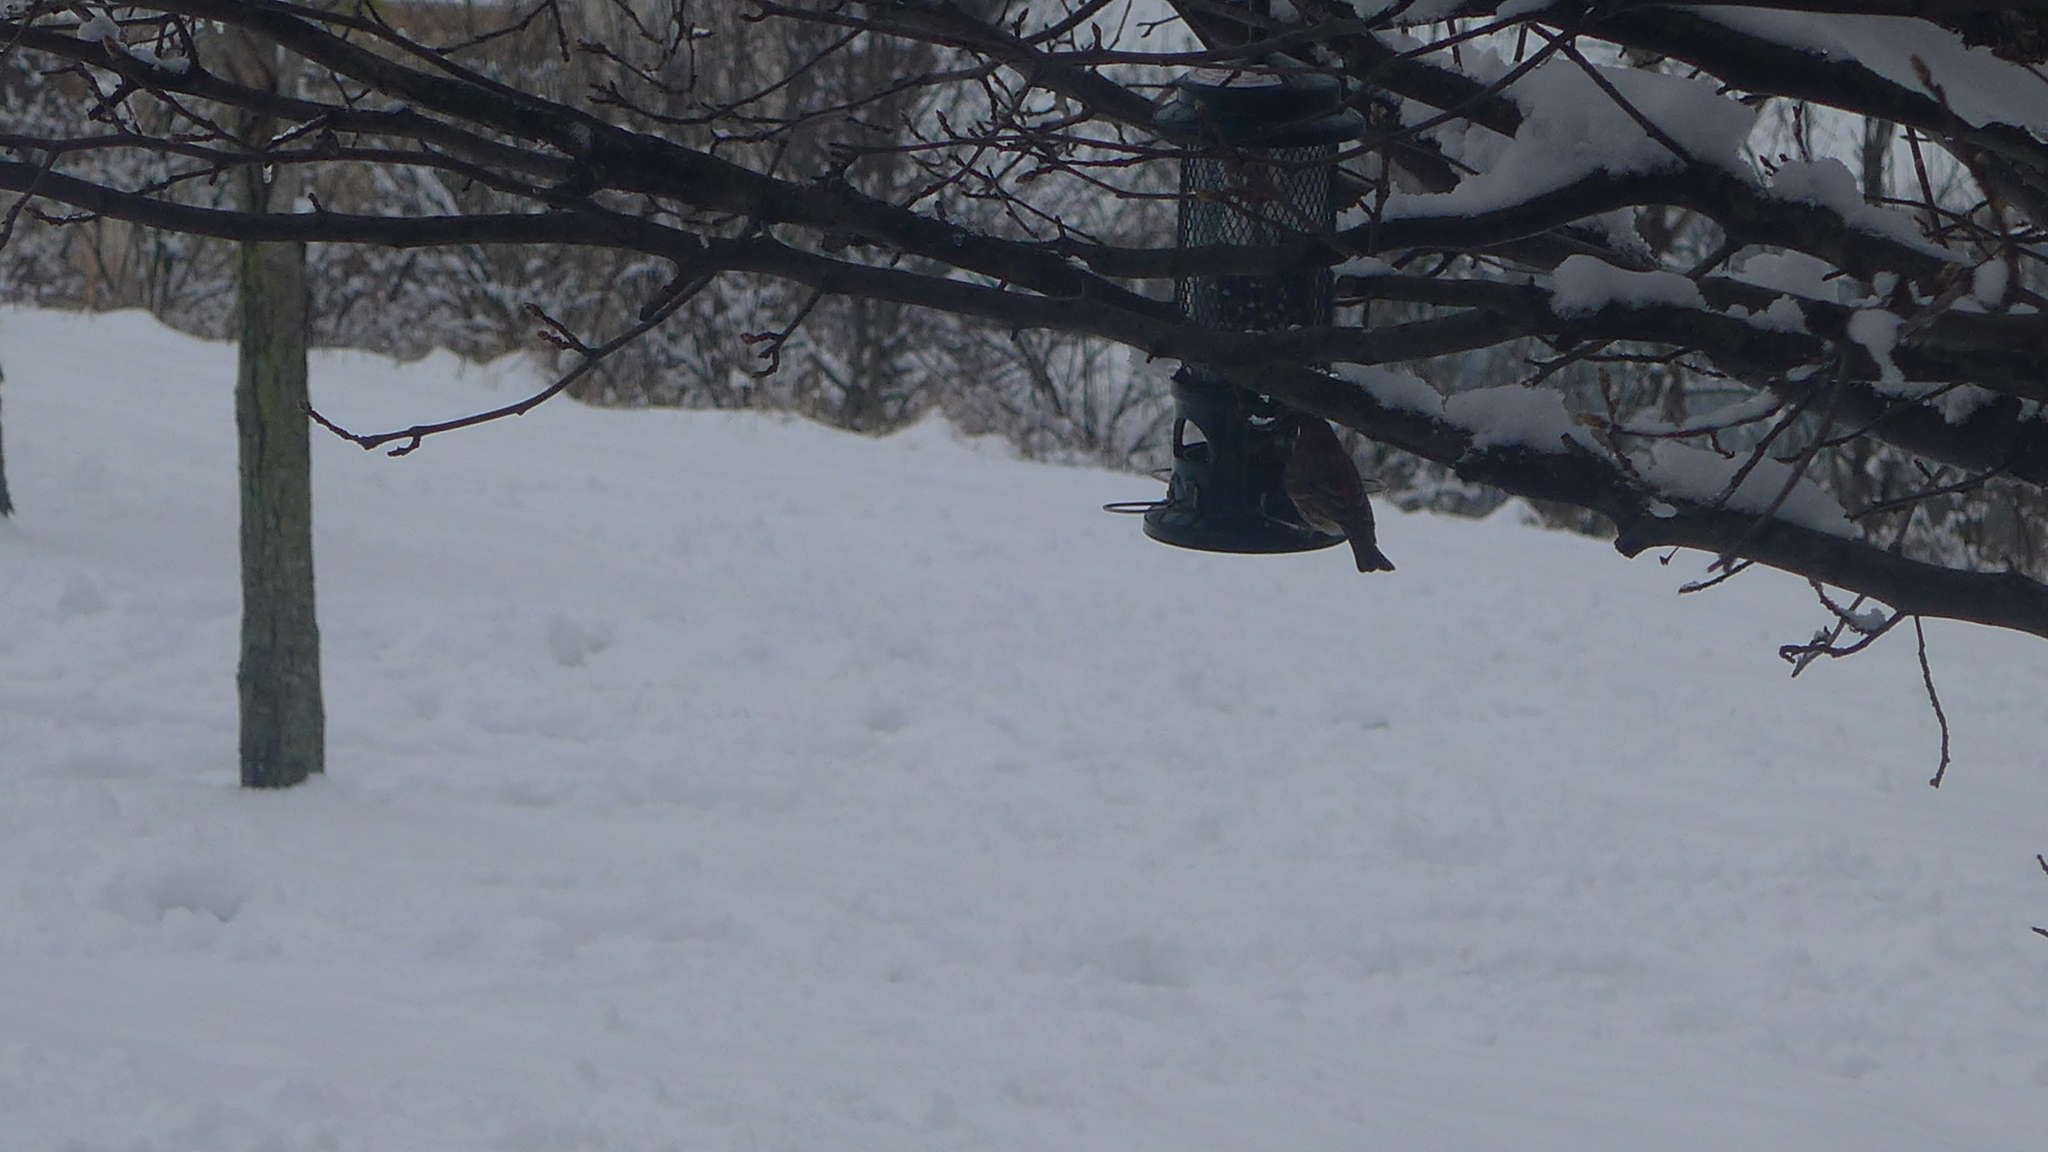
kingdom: Animalia
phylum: Chordata
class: Aves
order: Passeriformes
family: Fringillidae
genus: Haemorhous
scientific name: Haemorhous mexicanus
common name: House finch
